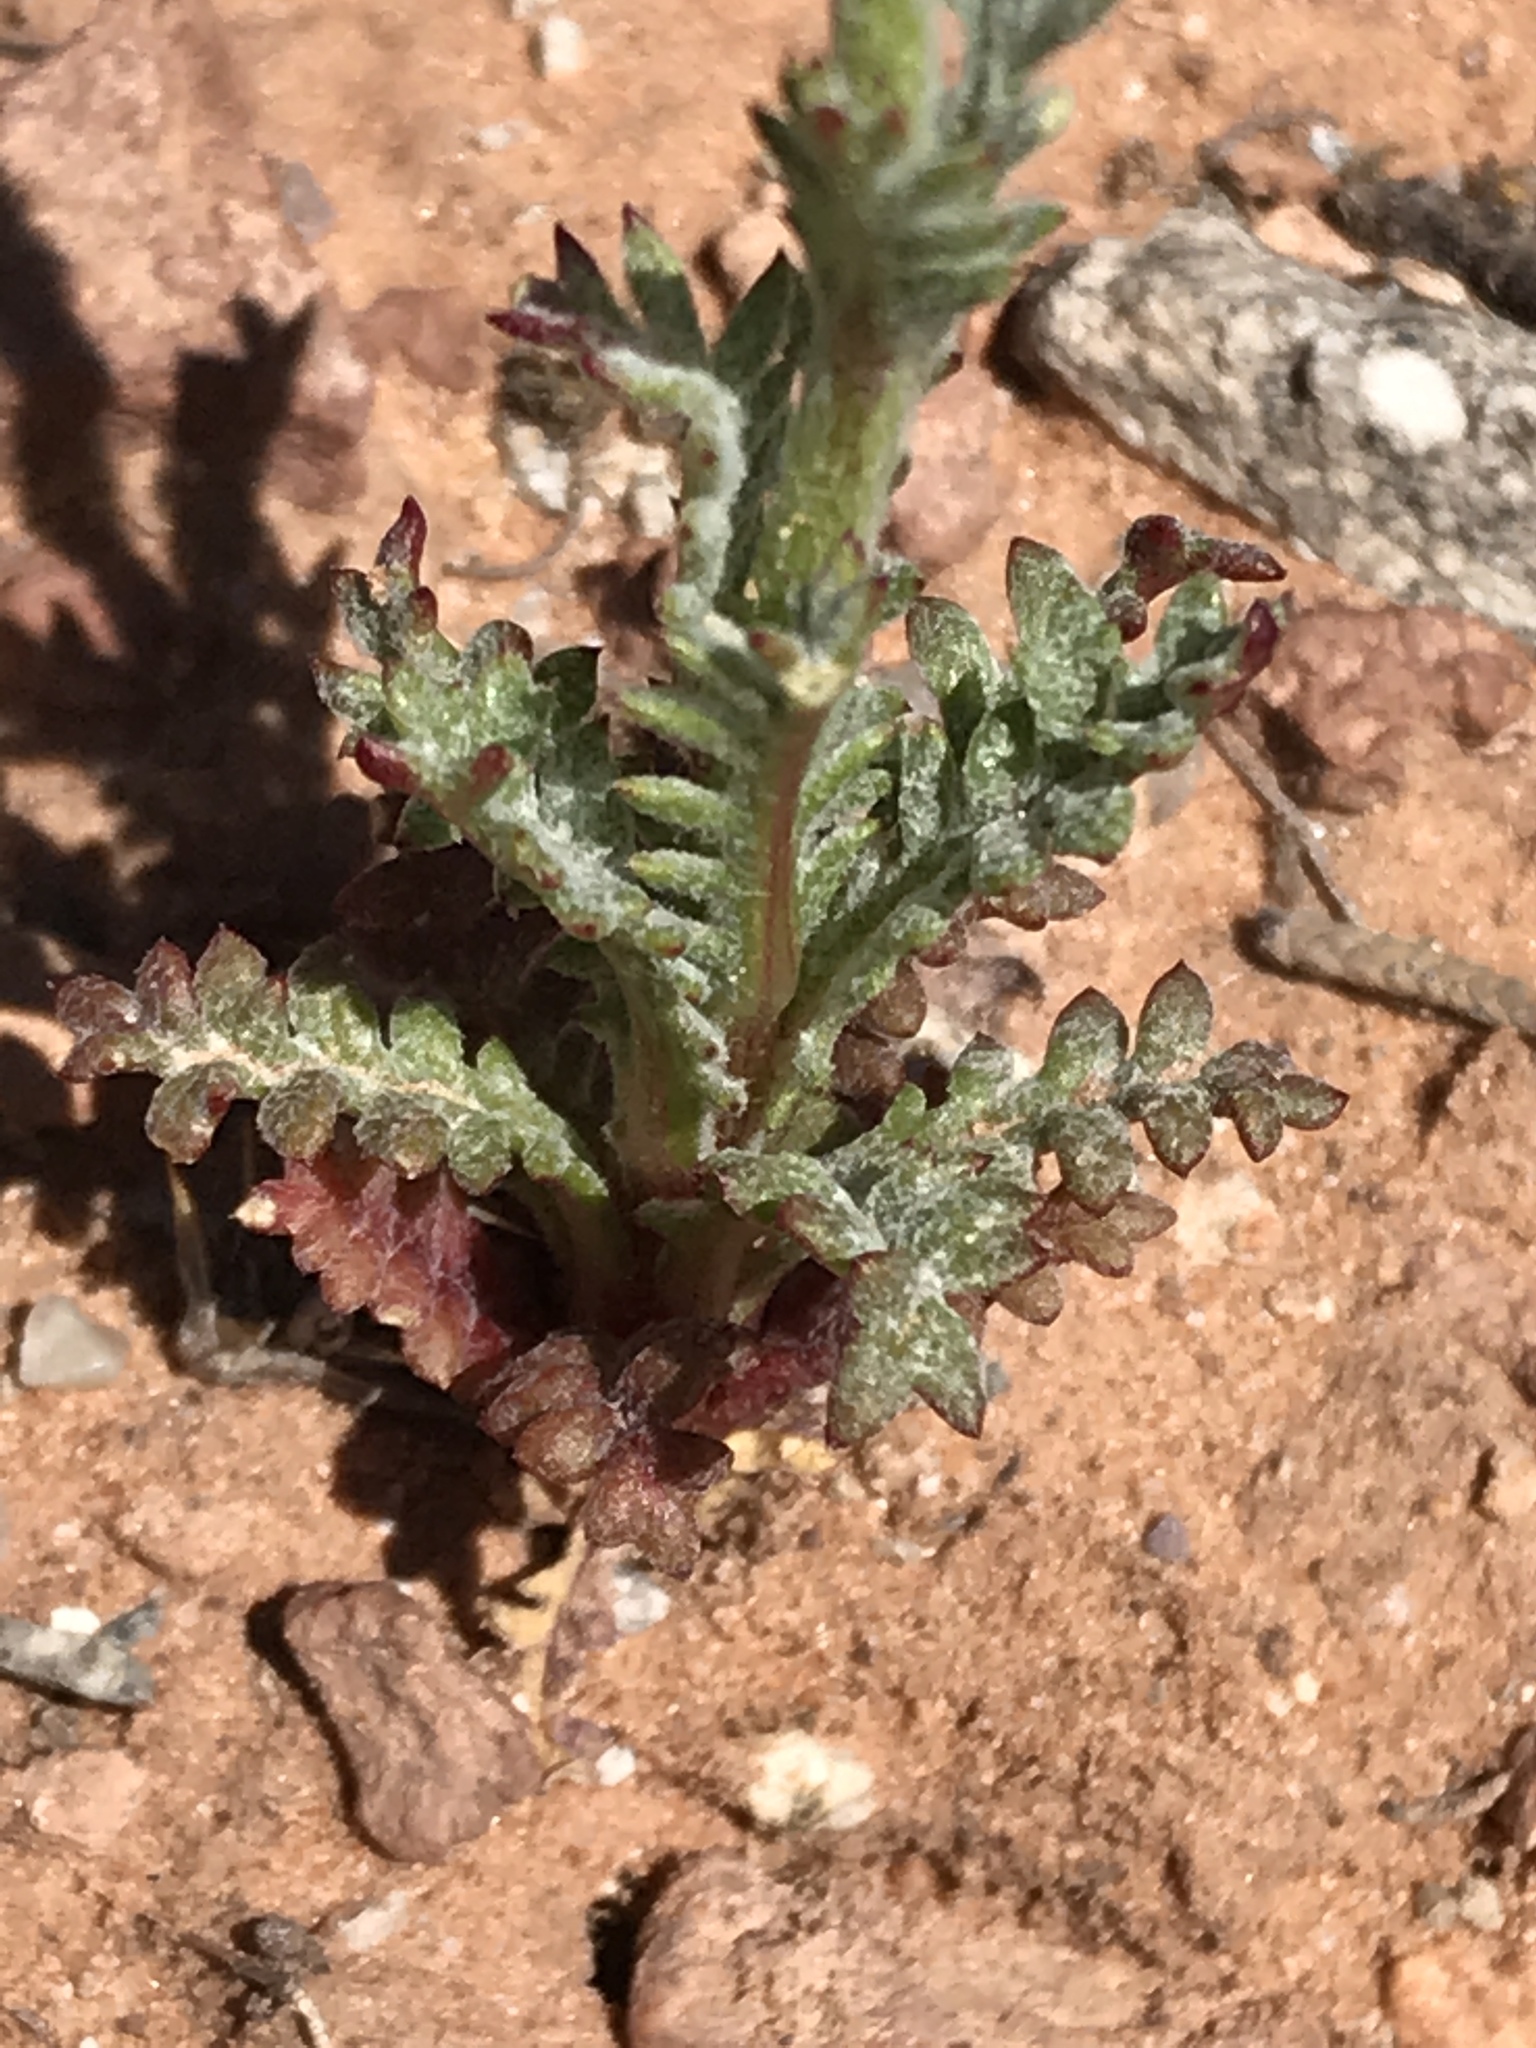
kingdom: Plantae
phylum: Tracheophyta
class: Magnoliopsida
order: Ericales
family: Polemoniaceae
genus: Gilia
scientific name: Gilia clokeyi
